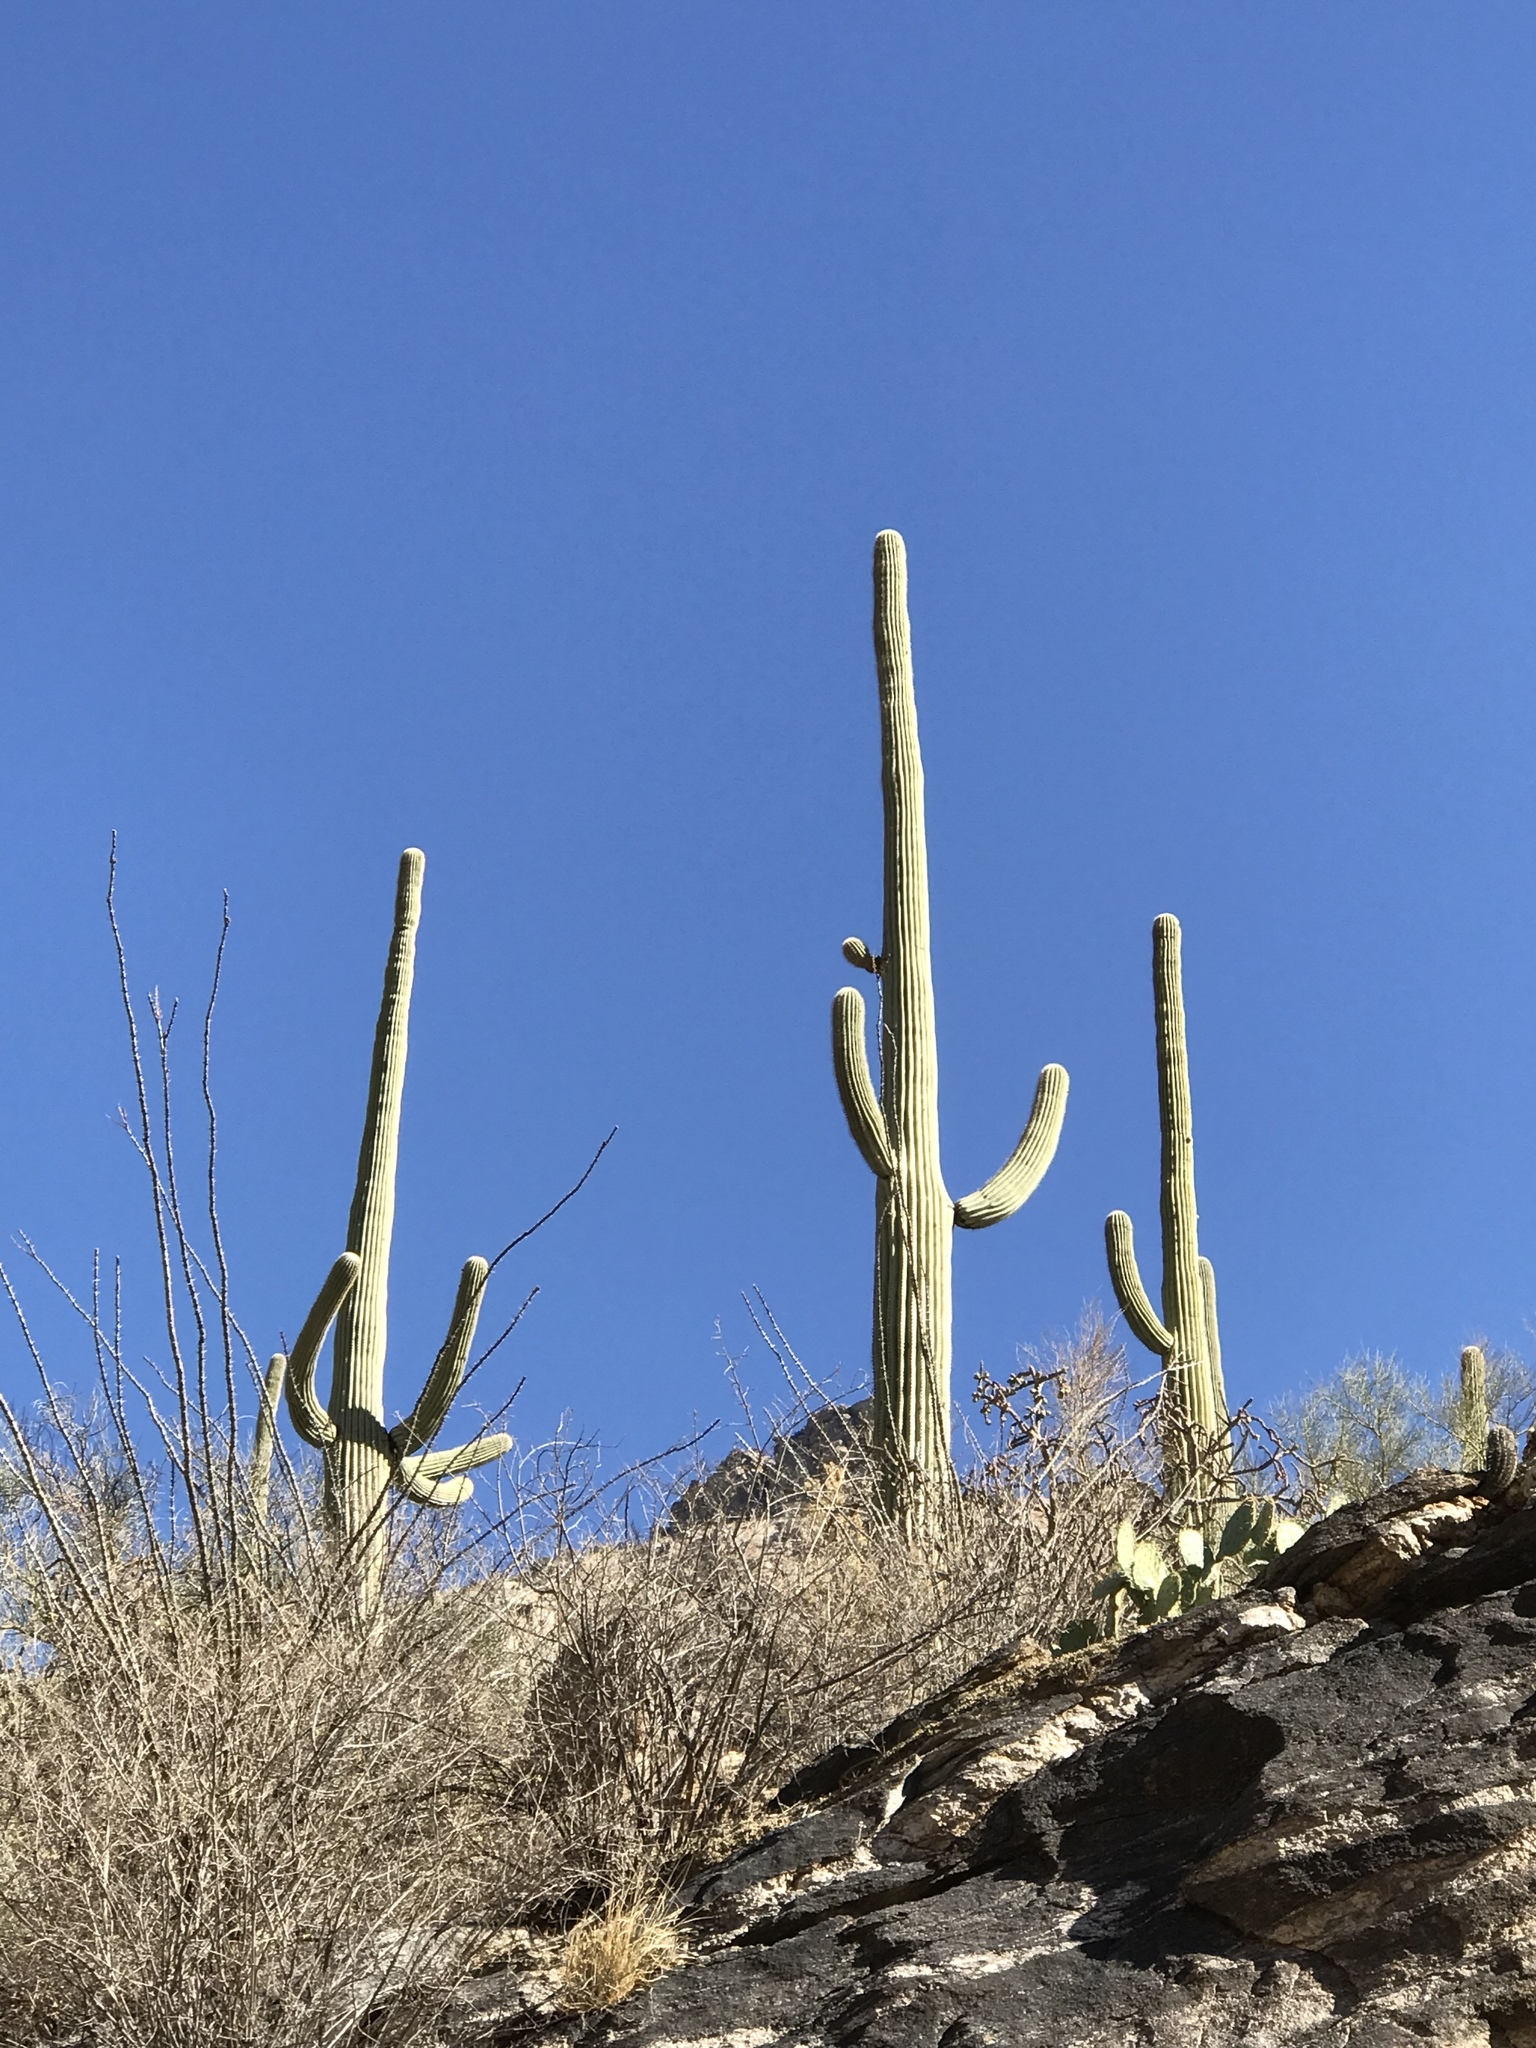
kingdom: Plantae
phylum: Tracheophyta
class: Magnoliopsida
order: Caryophyllales
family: Cactaceae
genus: Carnegiea
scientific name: Carnegiea gigantea
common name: Saguaro
